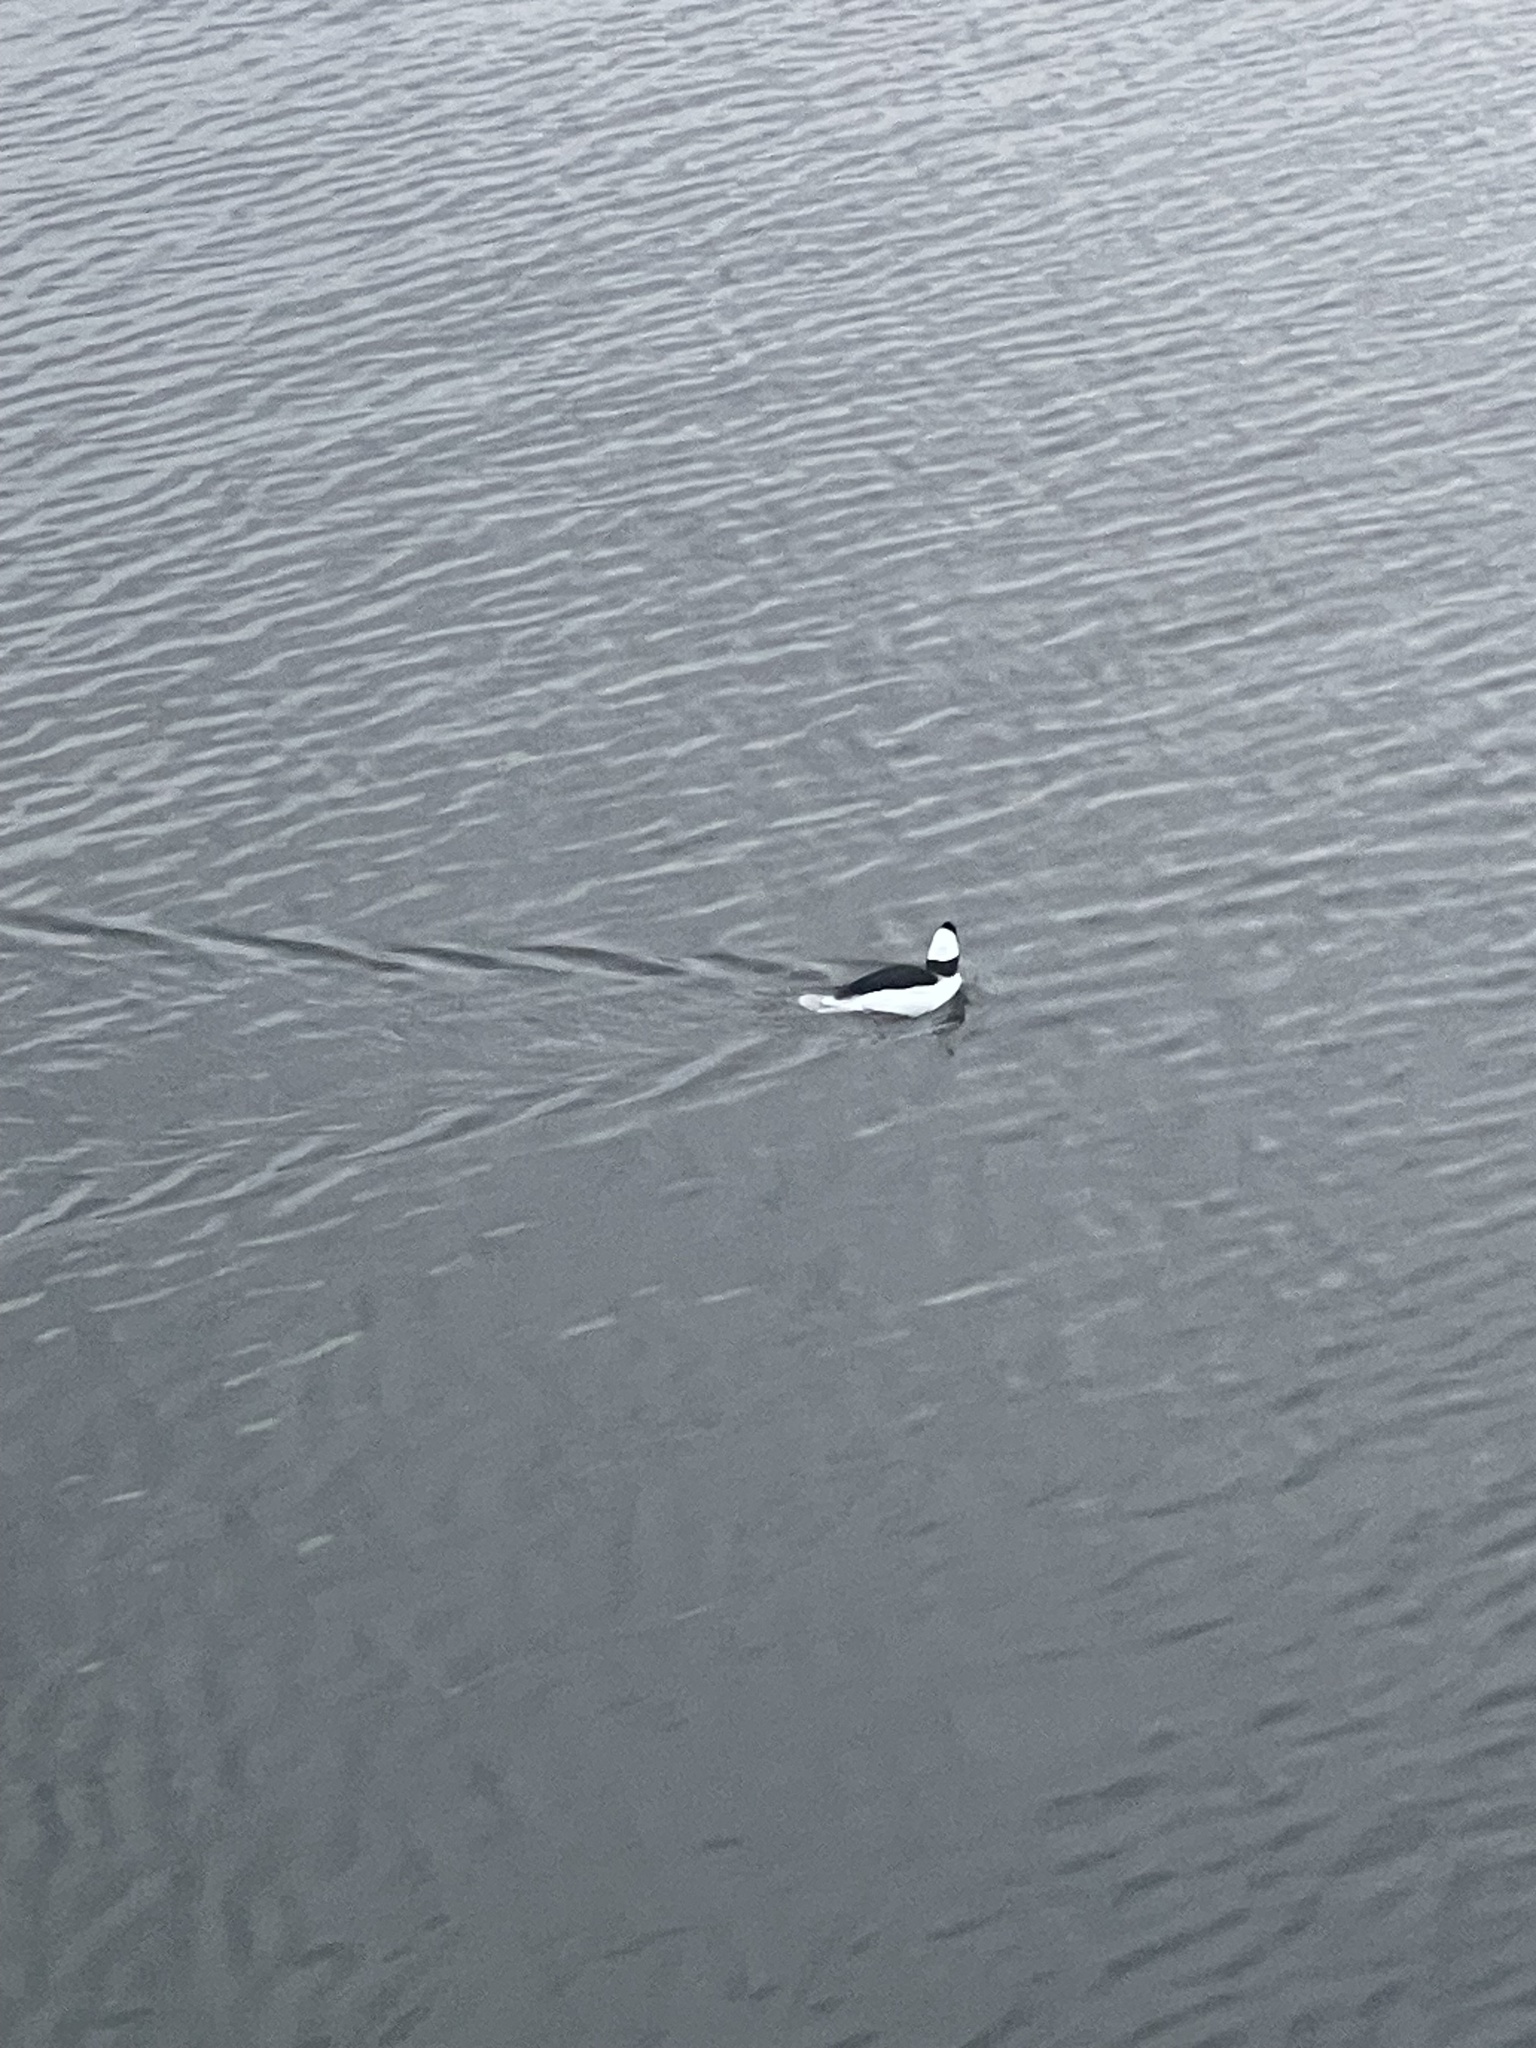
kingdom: Animalia
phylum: Chordata
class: Aves
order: Anseriformes
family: Anatidae
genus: Bucephala
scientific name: Bucephala albeola
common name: Bufflehead
